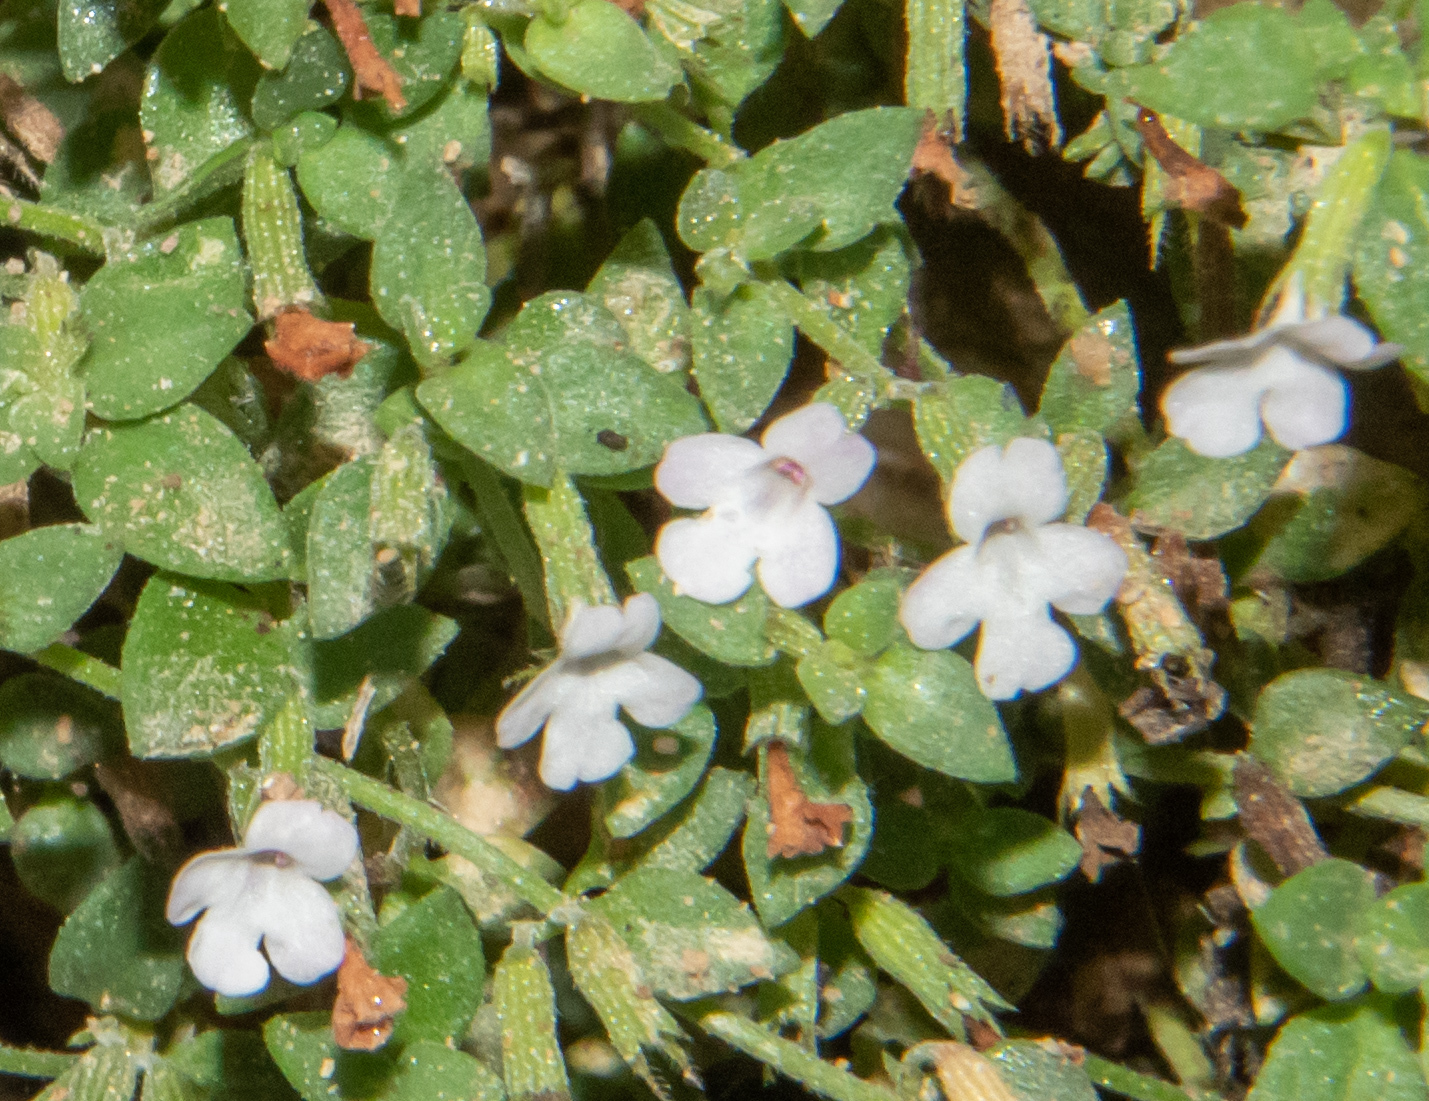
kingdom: Plantae
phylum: Tracheophyta
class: Magnoliopsida
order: Lamiales
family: Lamiaceae
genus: Micromeria
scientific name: Micromeria filiformis
